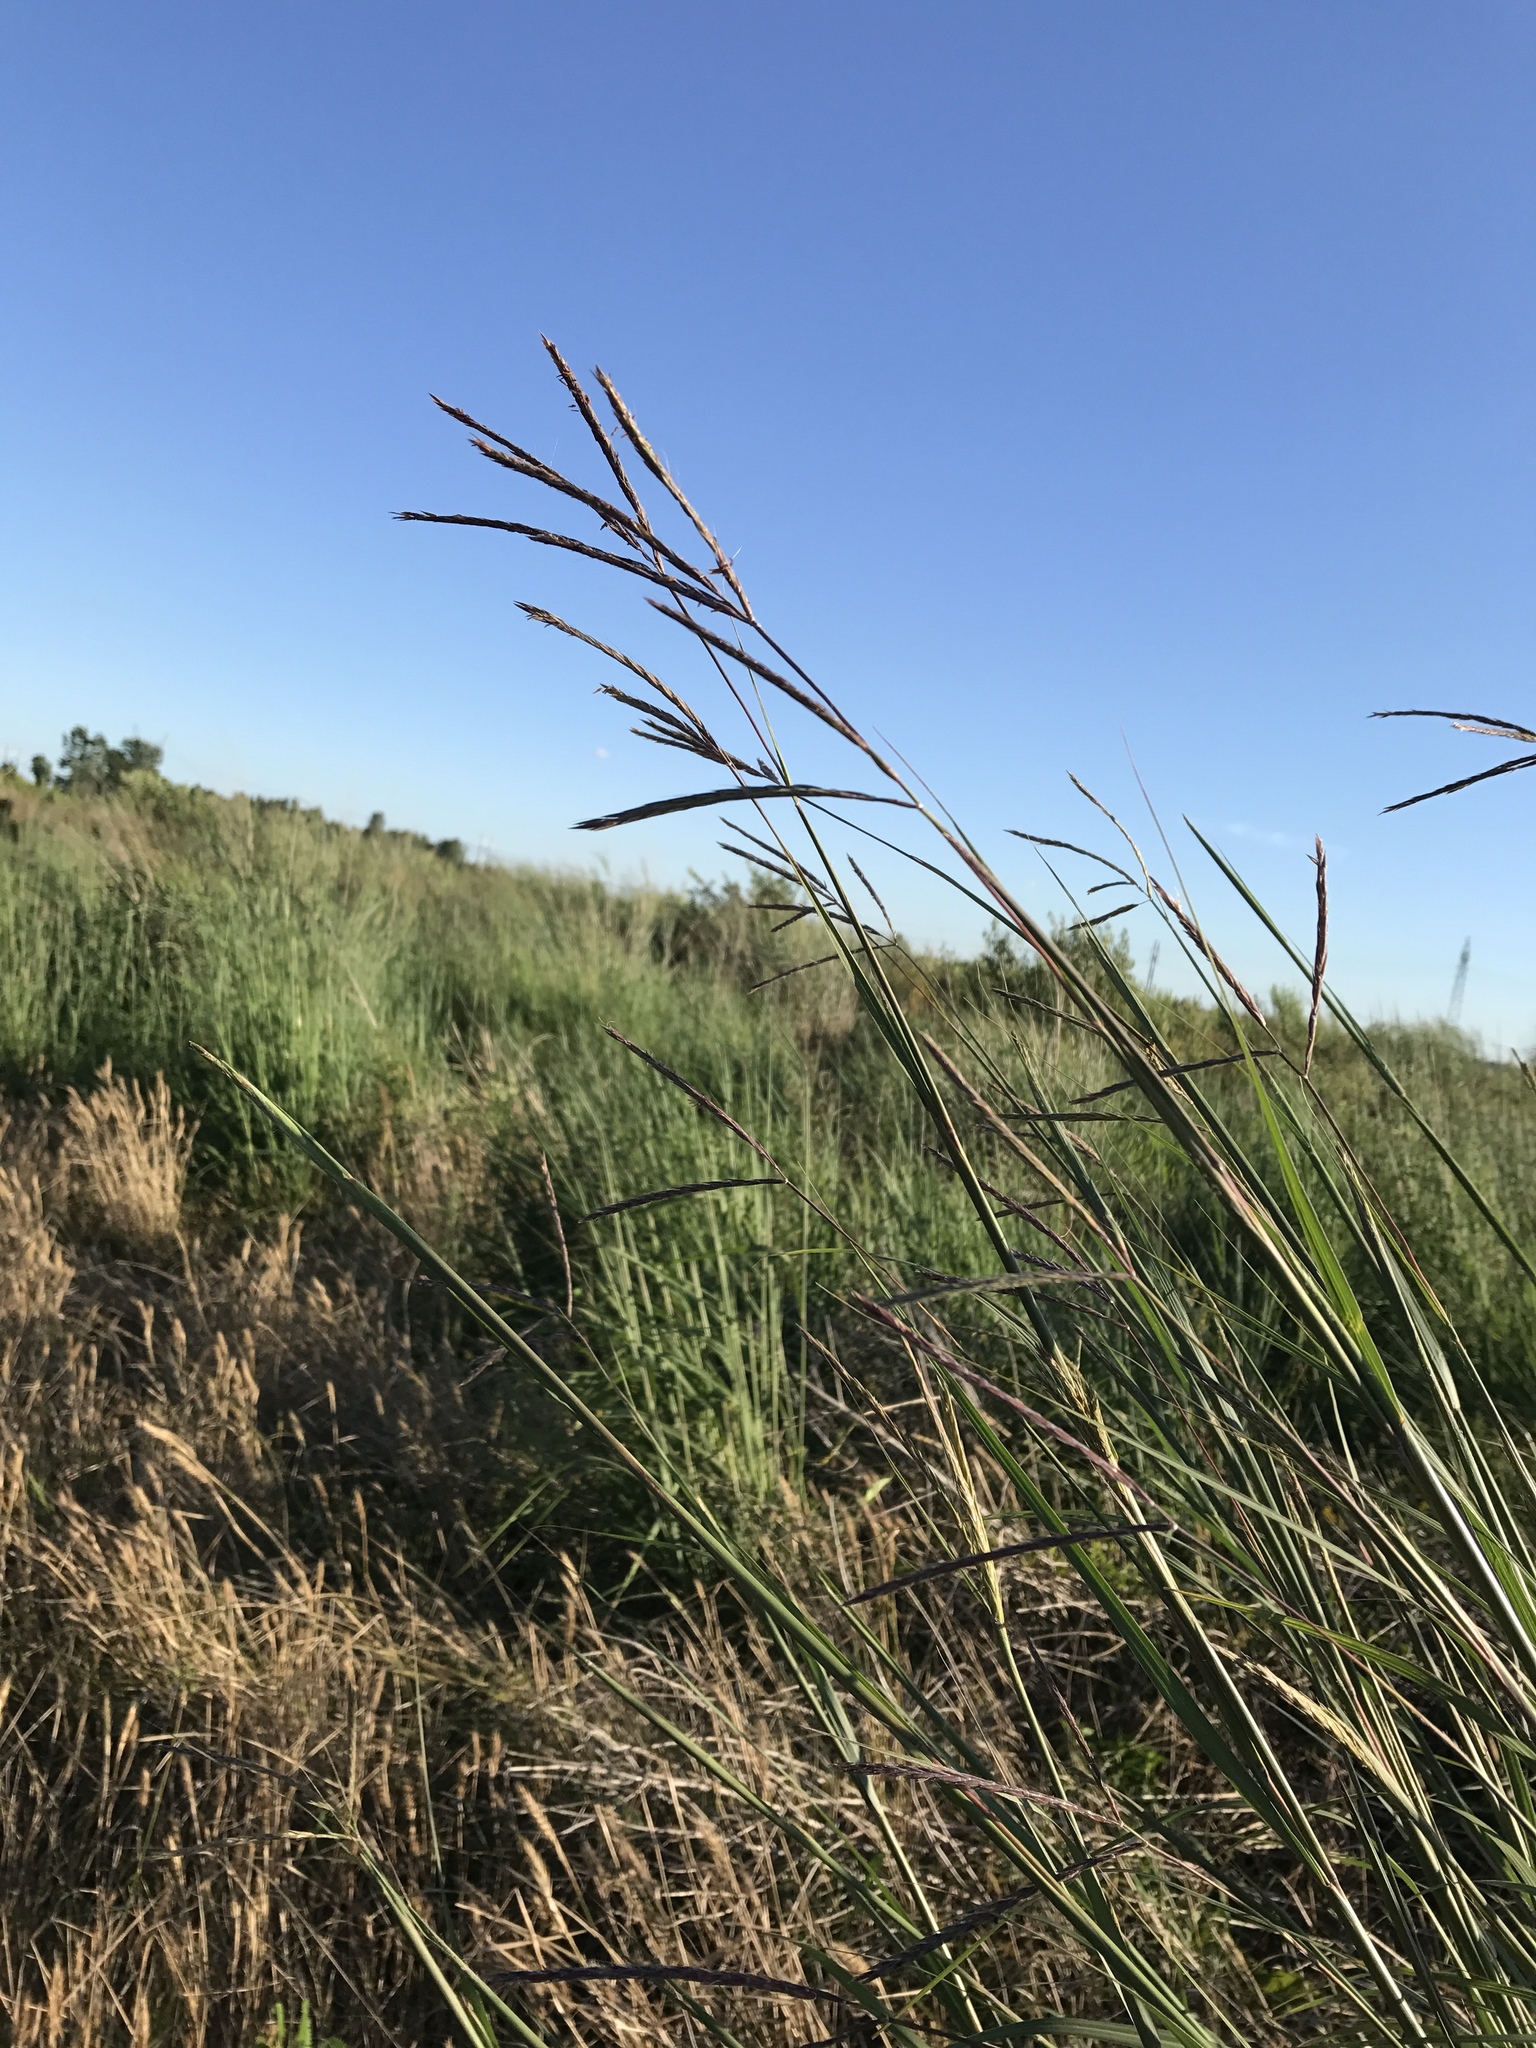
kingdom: Plantae
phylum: Tracheophyta
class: Liliopsida
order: Poales
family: Poaceae
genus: Andropogon
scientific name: Andropogon gerardi
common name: Big bluestem
